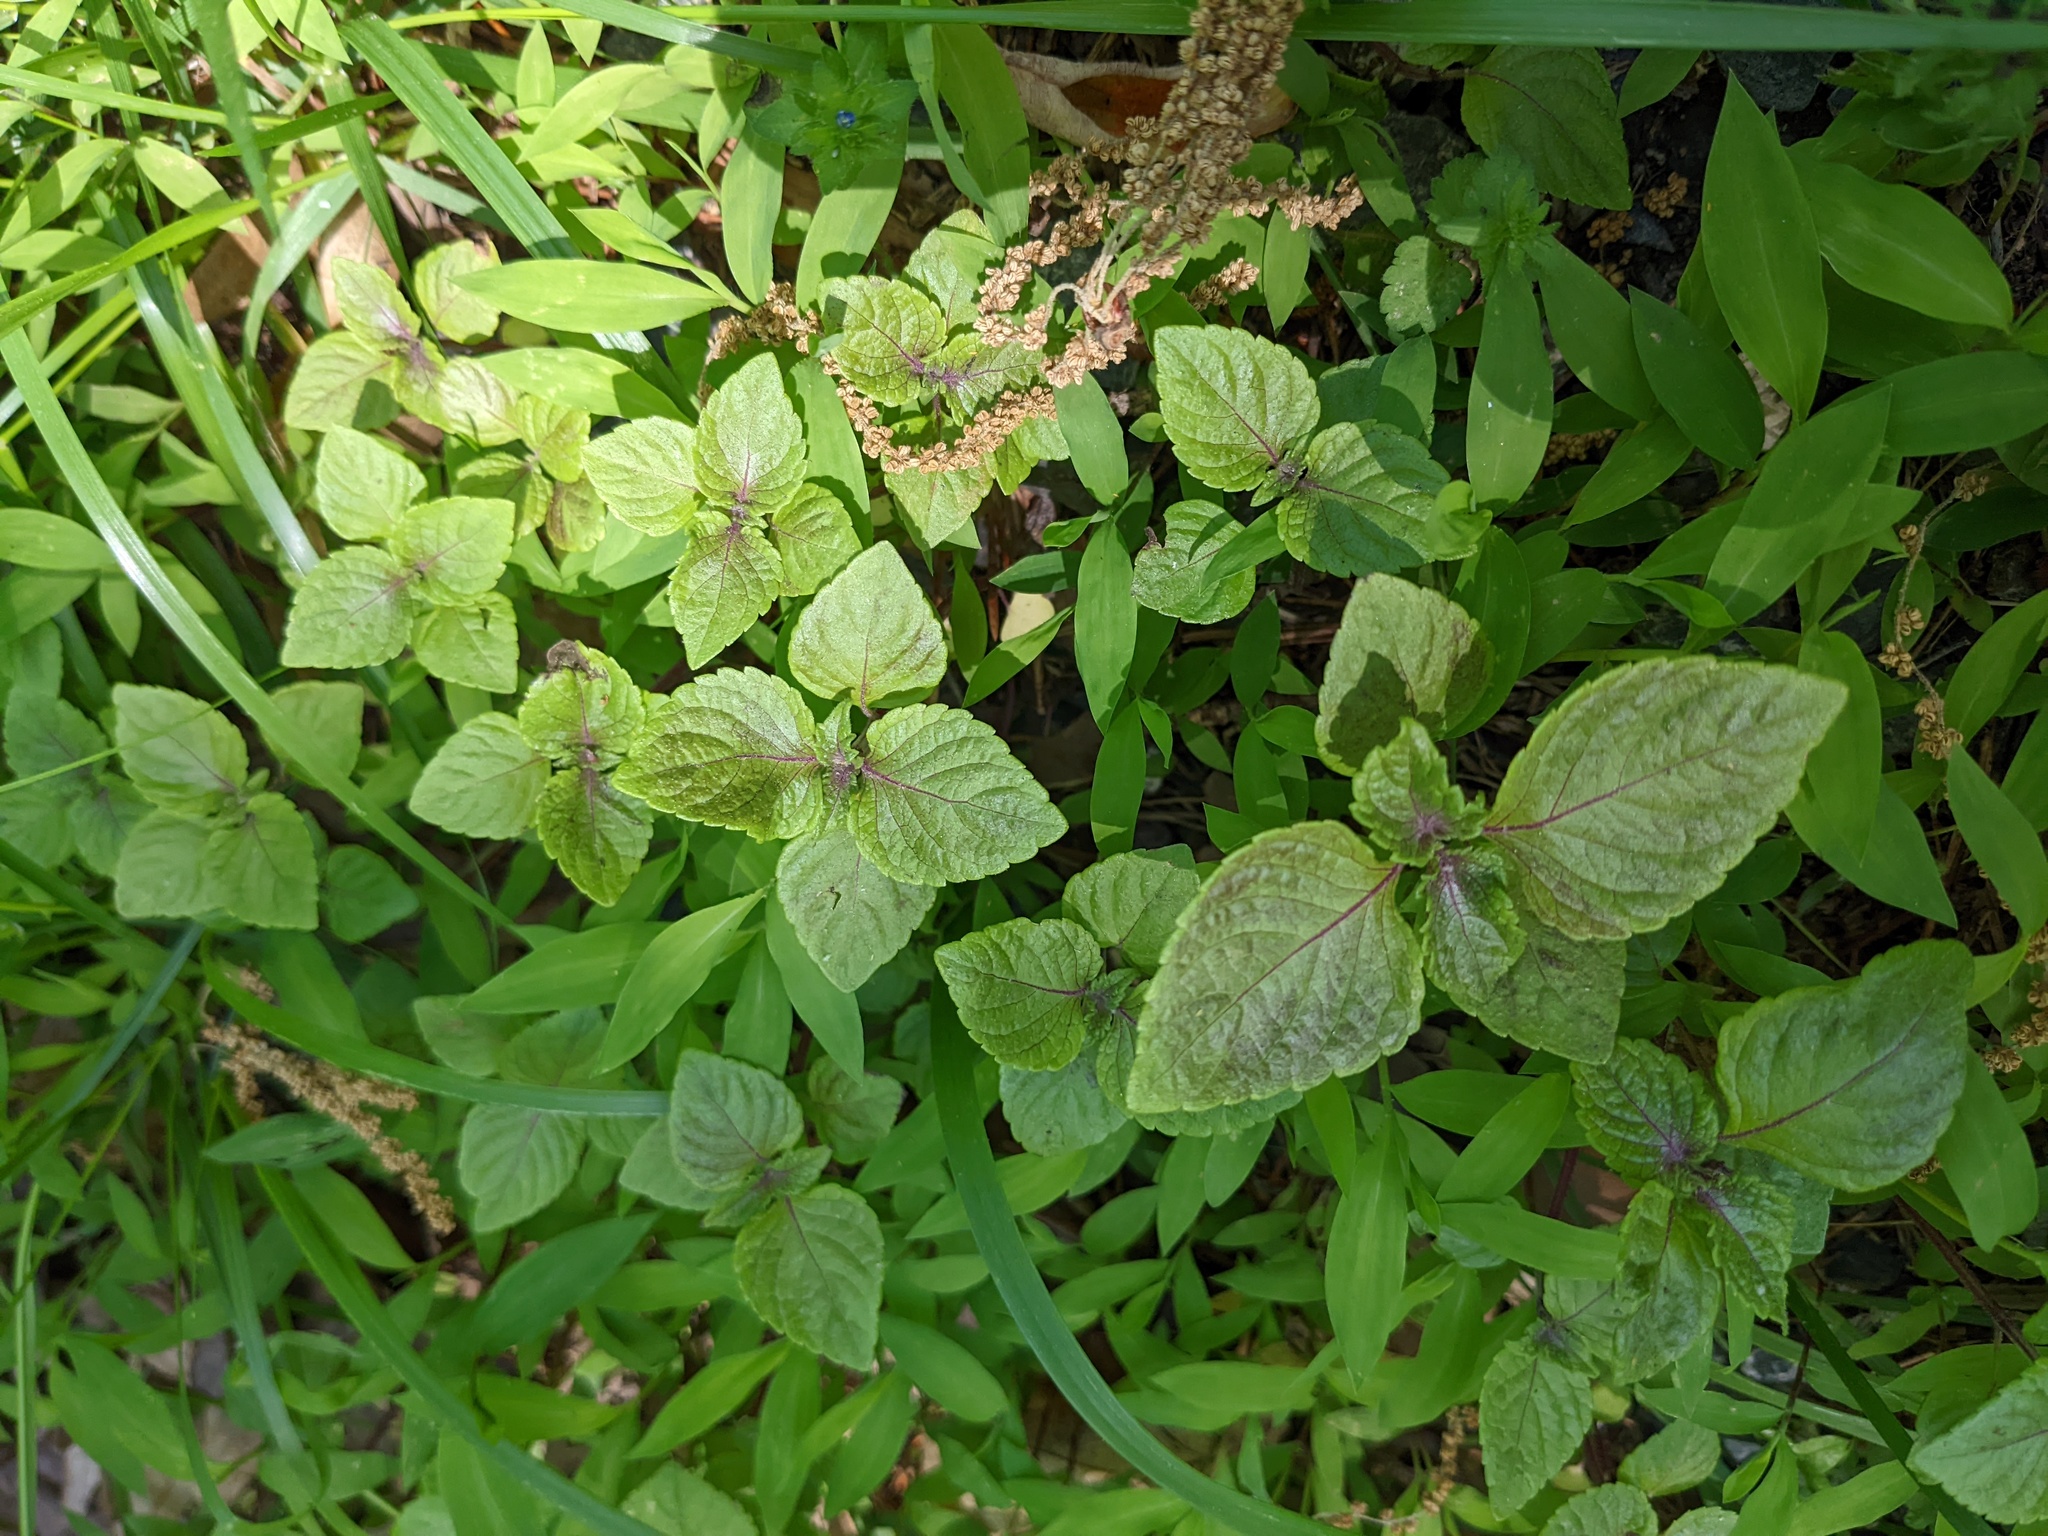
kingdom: Plantae
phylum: Tracheophyta
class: Magnoliopsida
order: Lamiales
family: Lamiaceae
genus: Perilla
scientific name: Perilla frutescens
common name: Perilla
